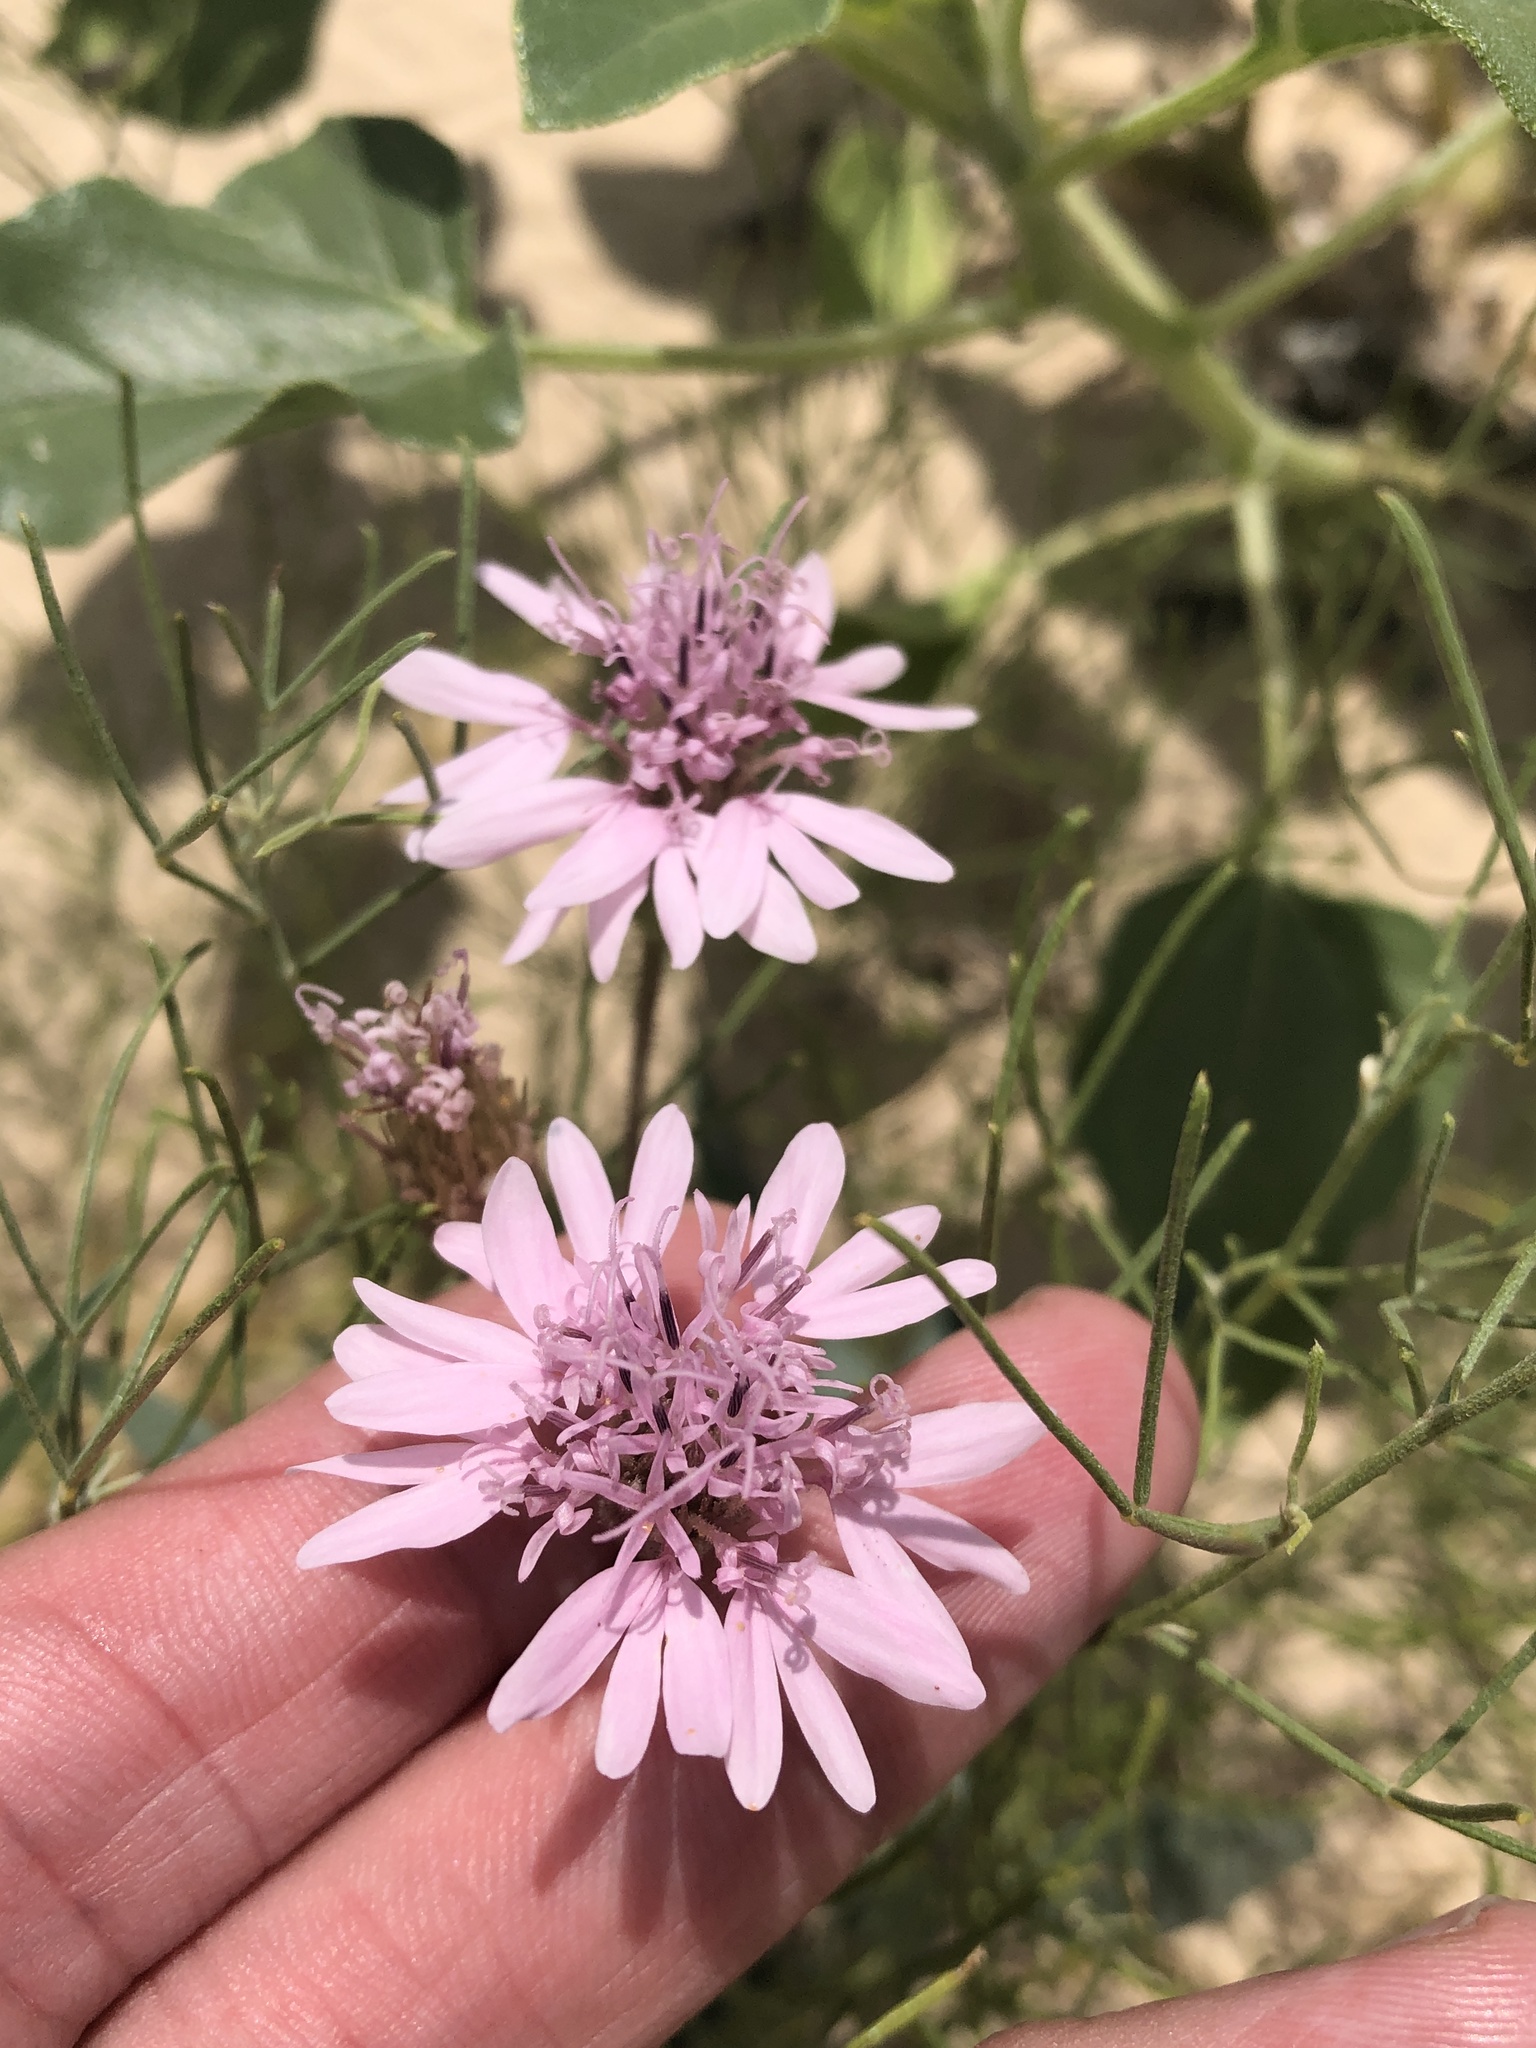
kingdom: Plantae
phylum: Tracheophyta
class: Magnoliopsida
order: Asterales
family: Asteraceae
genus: Palafoxia
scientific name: Palafoxia sphacelata
